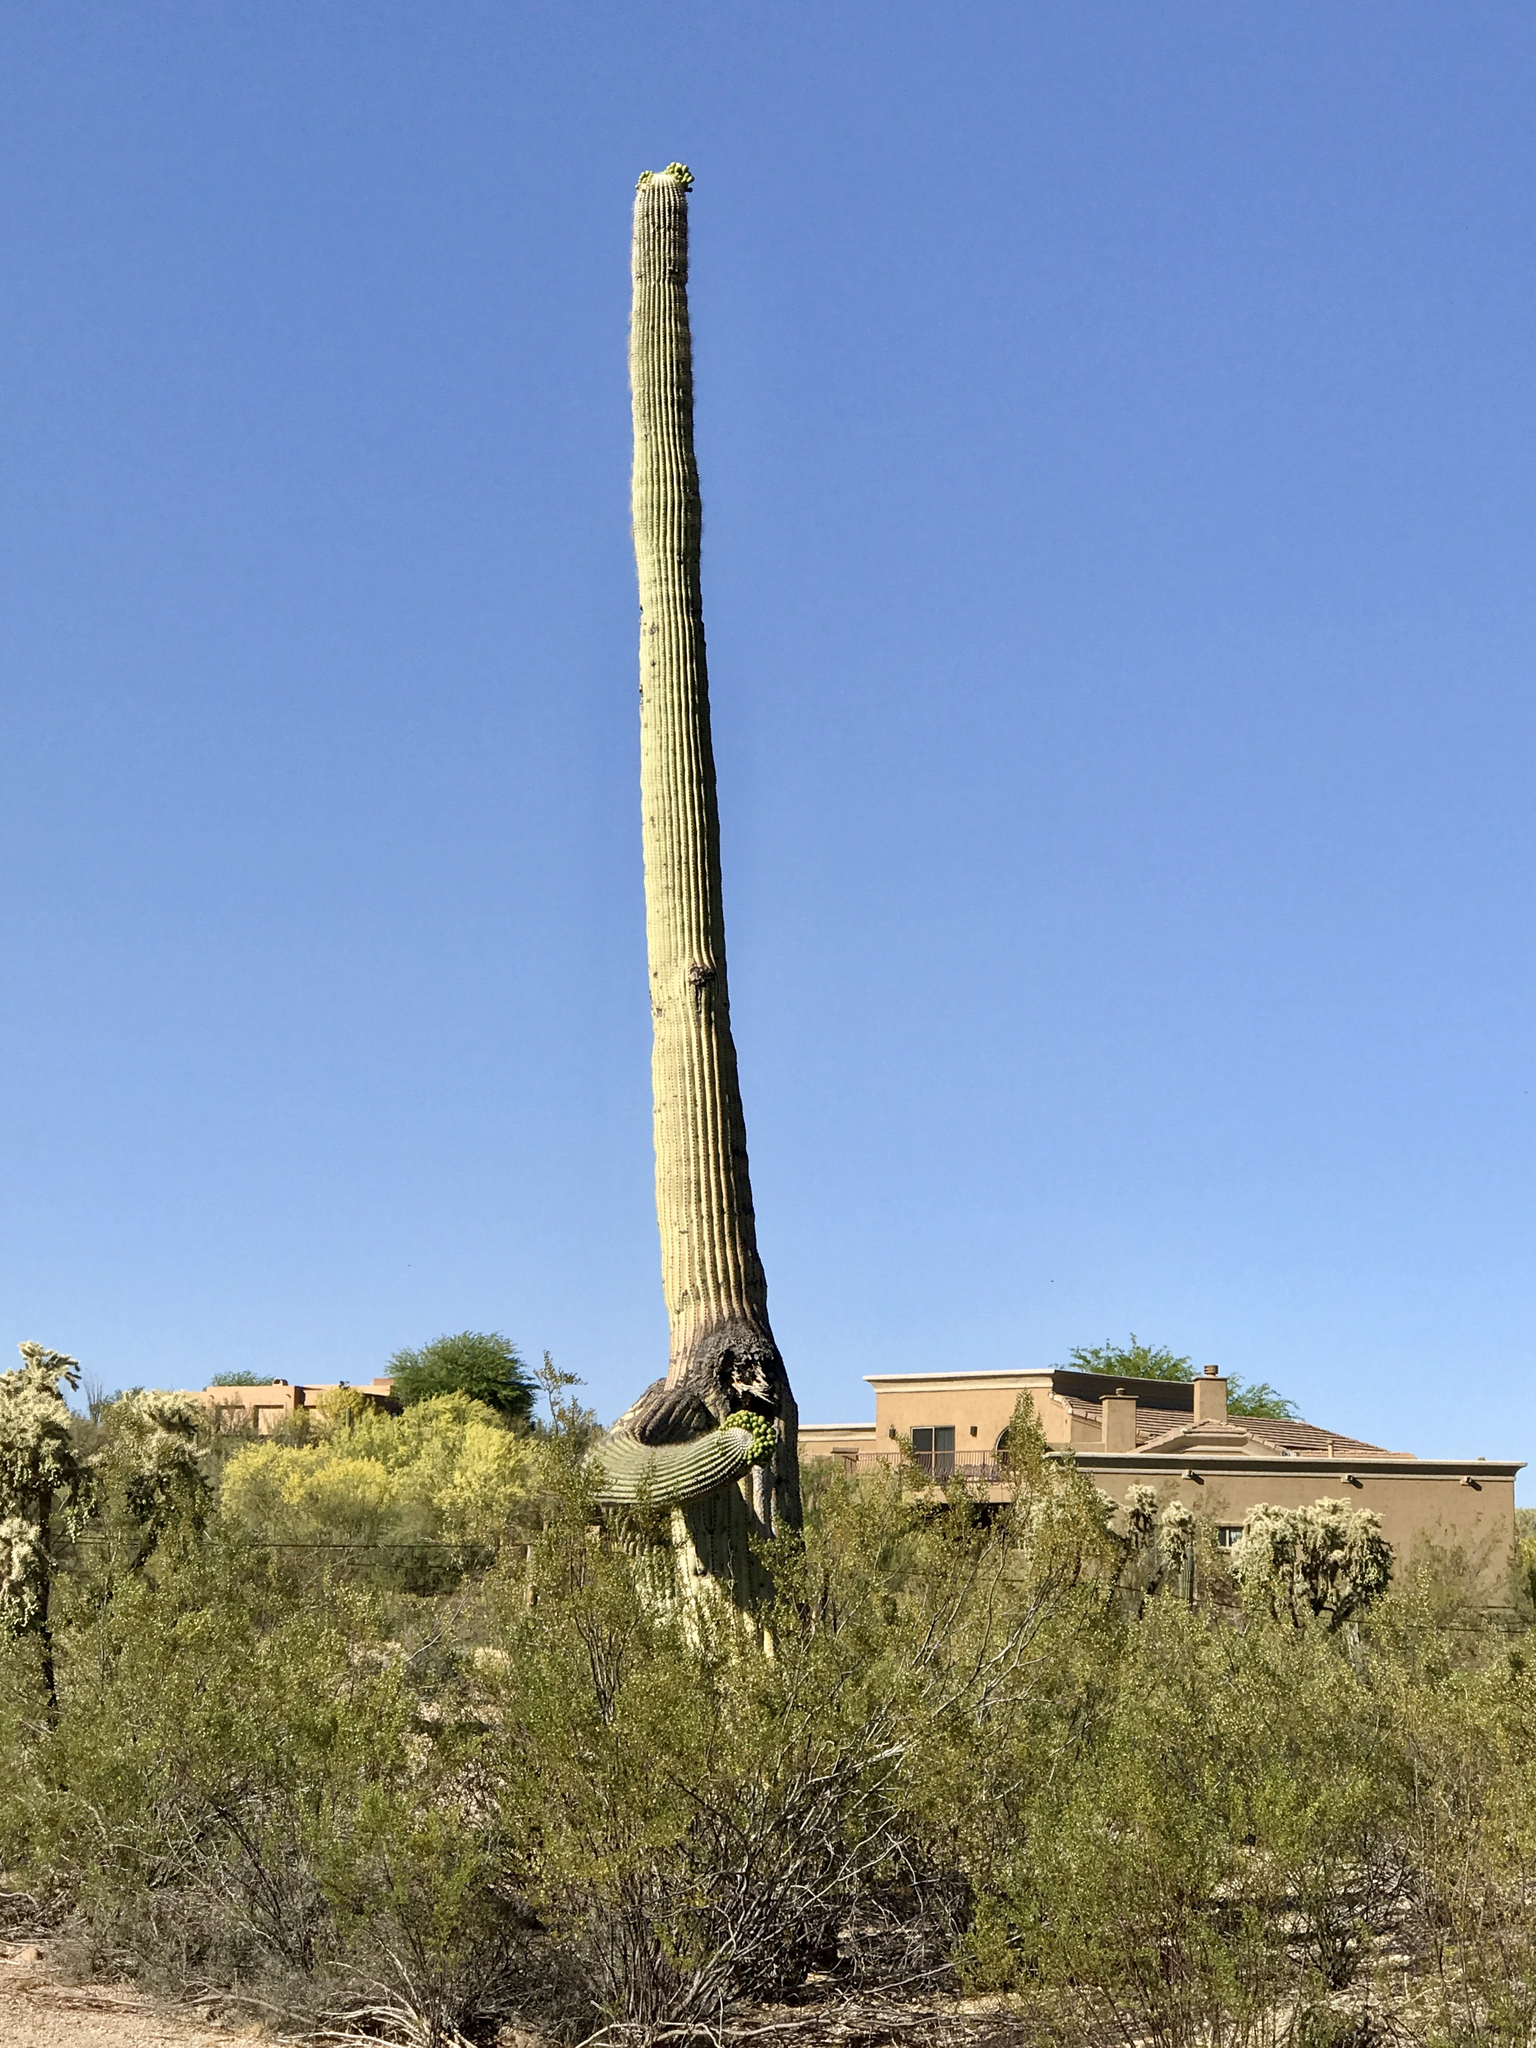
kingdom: Plantae
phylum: Tracheophyta
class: Magnoliopsida
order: Caryophyllales
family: Cactaceae
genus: Carnegiea
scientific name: Carnegiea gigantea
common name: Saguaro
